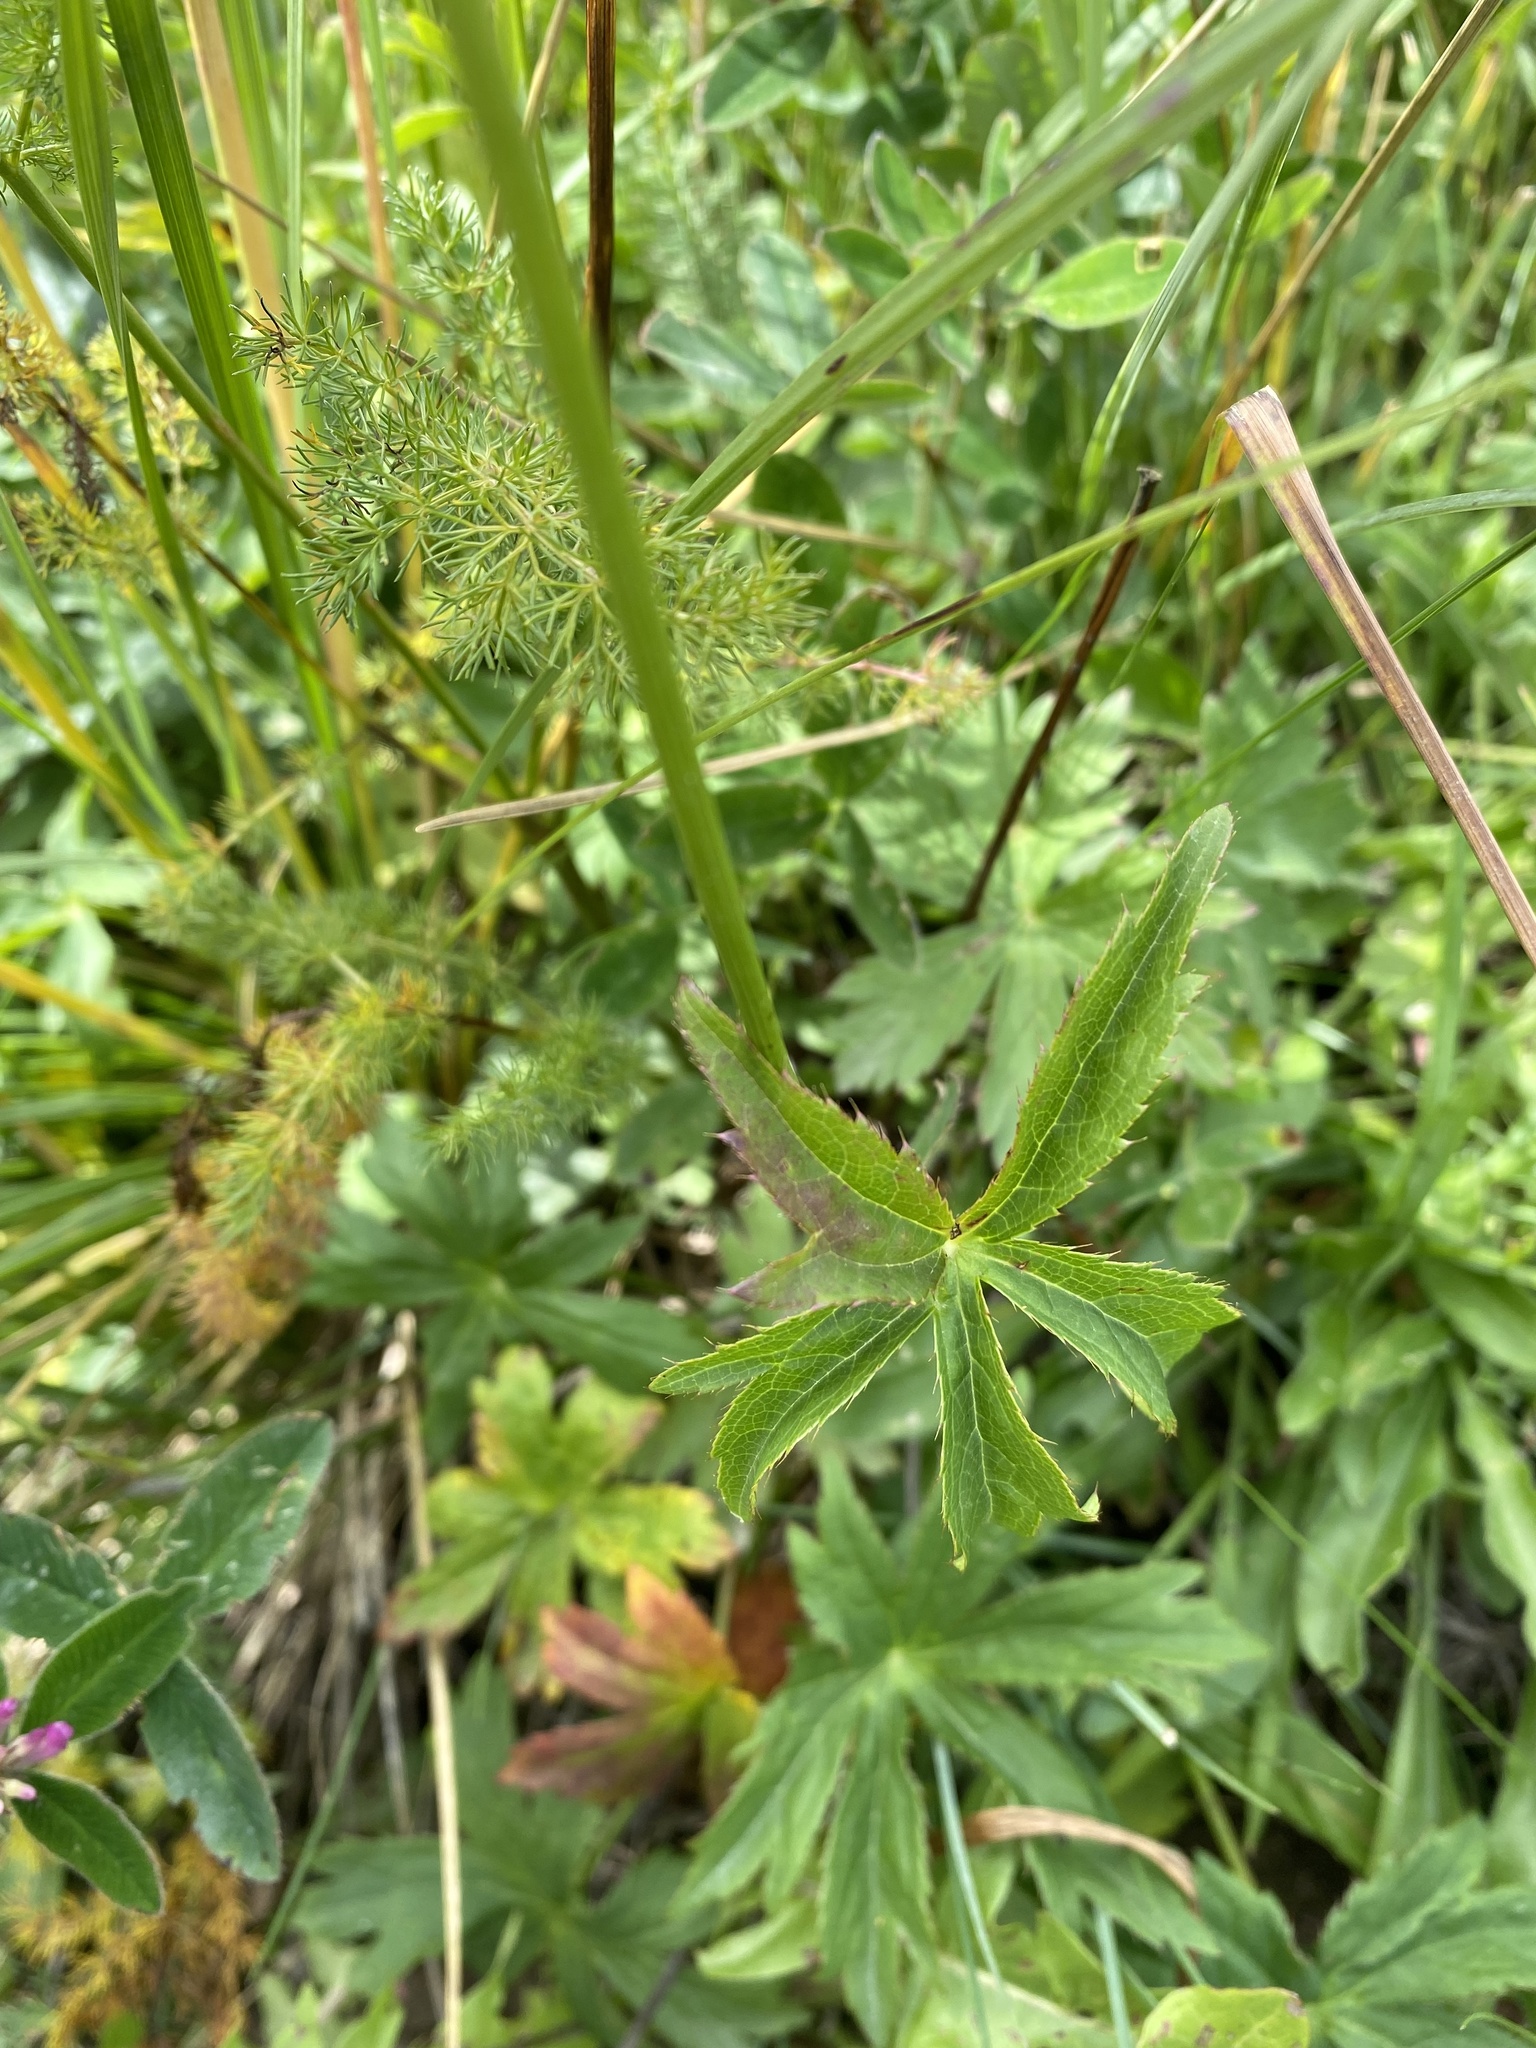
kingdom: Plantae
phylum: Tracheophyta
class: Magnoliopsida
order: Apiales
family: Apiaceae
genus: Astrantia
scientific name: Astrantia major
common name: Greater masterwort
